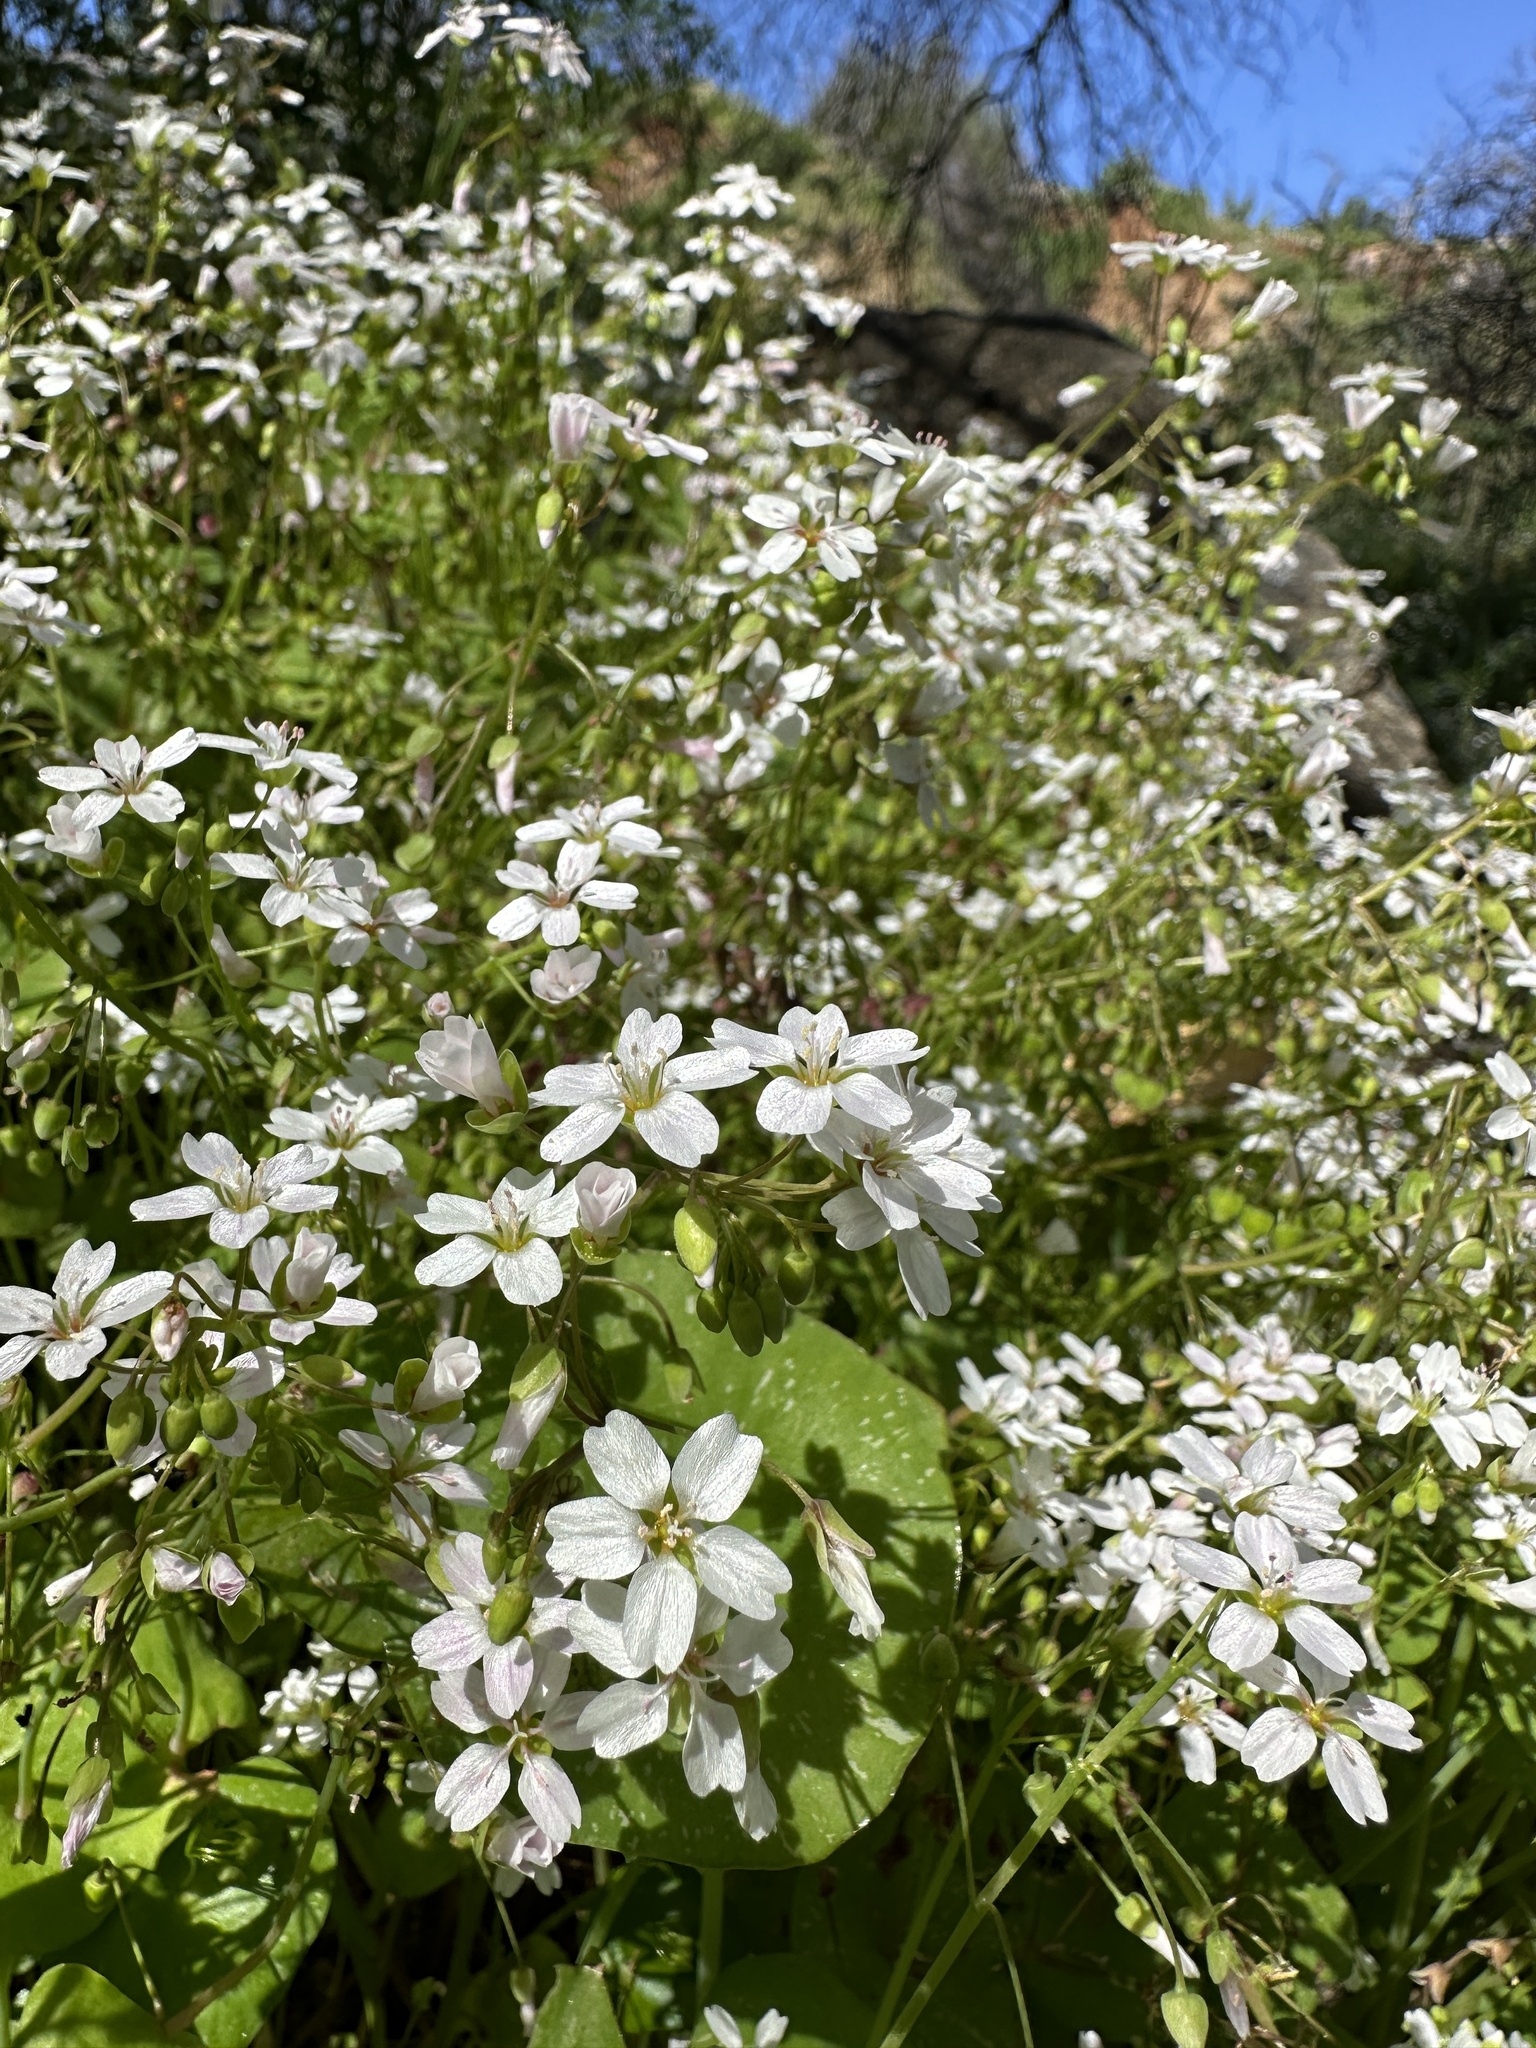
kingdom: Plantae
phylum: Tracheophyta
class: Magnoliopsida
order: Caryophyllales
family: Montiaceae
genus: Claytonia
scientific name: Claytonia parviflora
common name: Indian-lettuce
